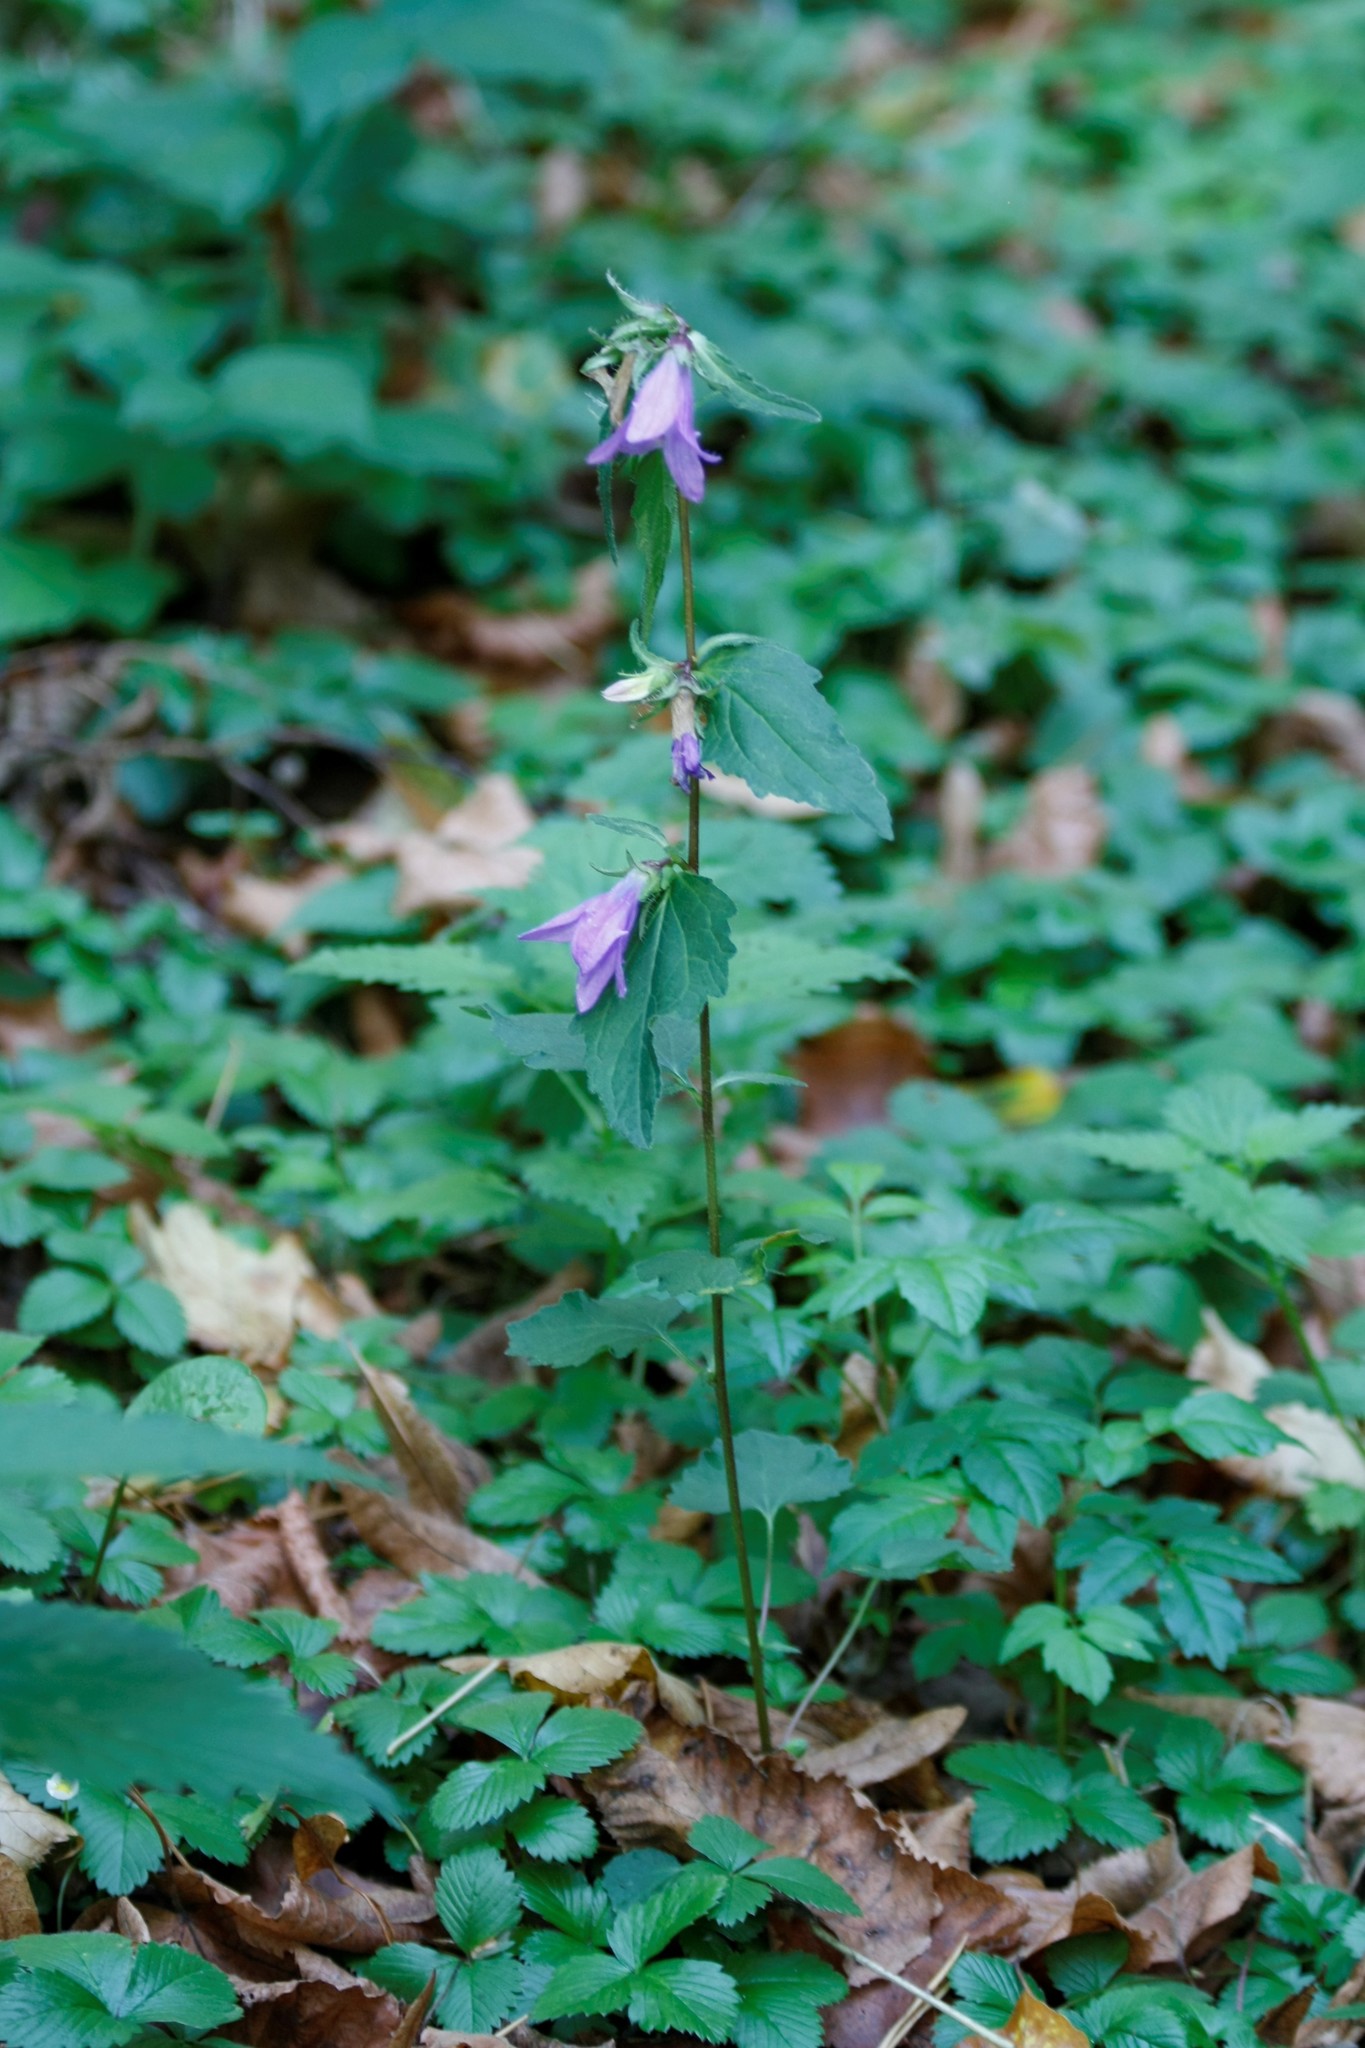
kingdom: Plantae
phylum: Tracheophyta
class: Magnoliopsida
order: Asterales
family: Campanulaceae
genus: Campanula
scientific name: Campanula trachelium
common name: Nettle-leaved bellflower
